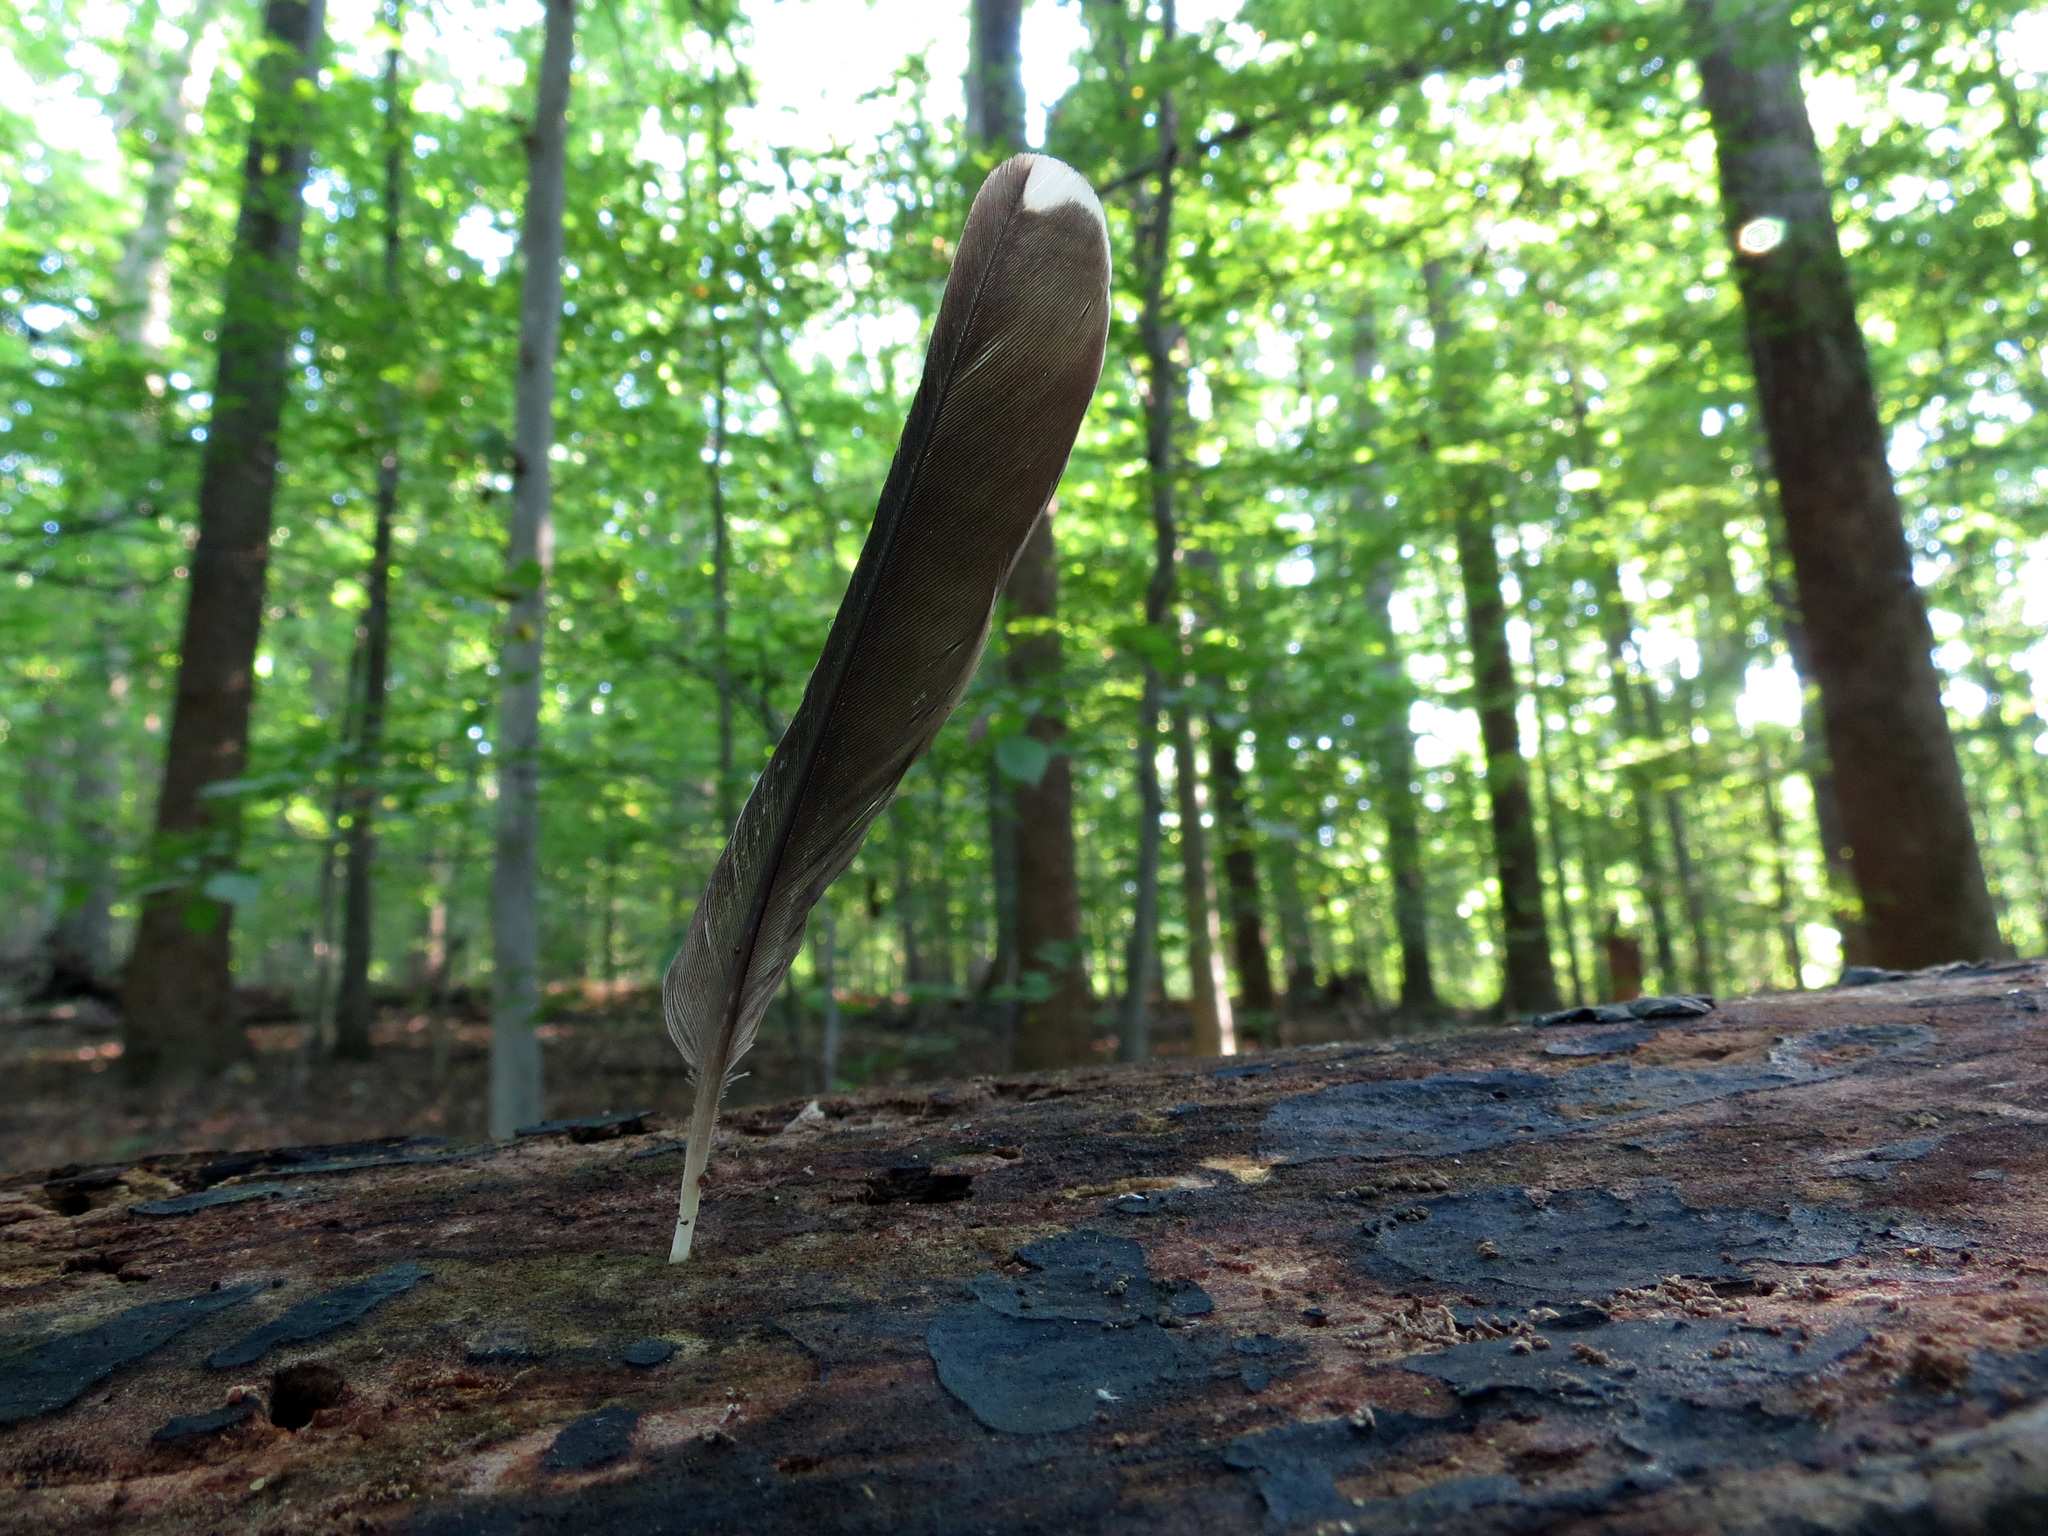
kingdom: Animalia
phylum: Chordata
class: Aves
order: Passeriformes
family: Turdidae
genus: Turdus
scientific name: Turdus migratorius
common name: American robin
